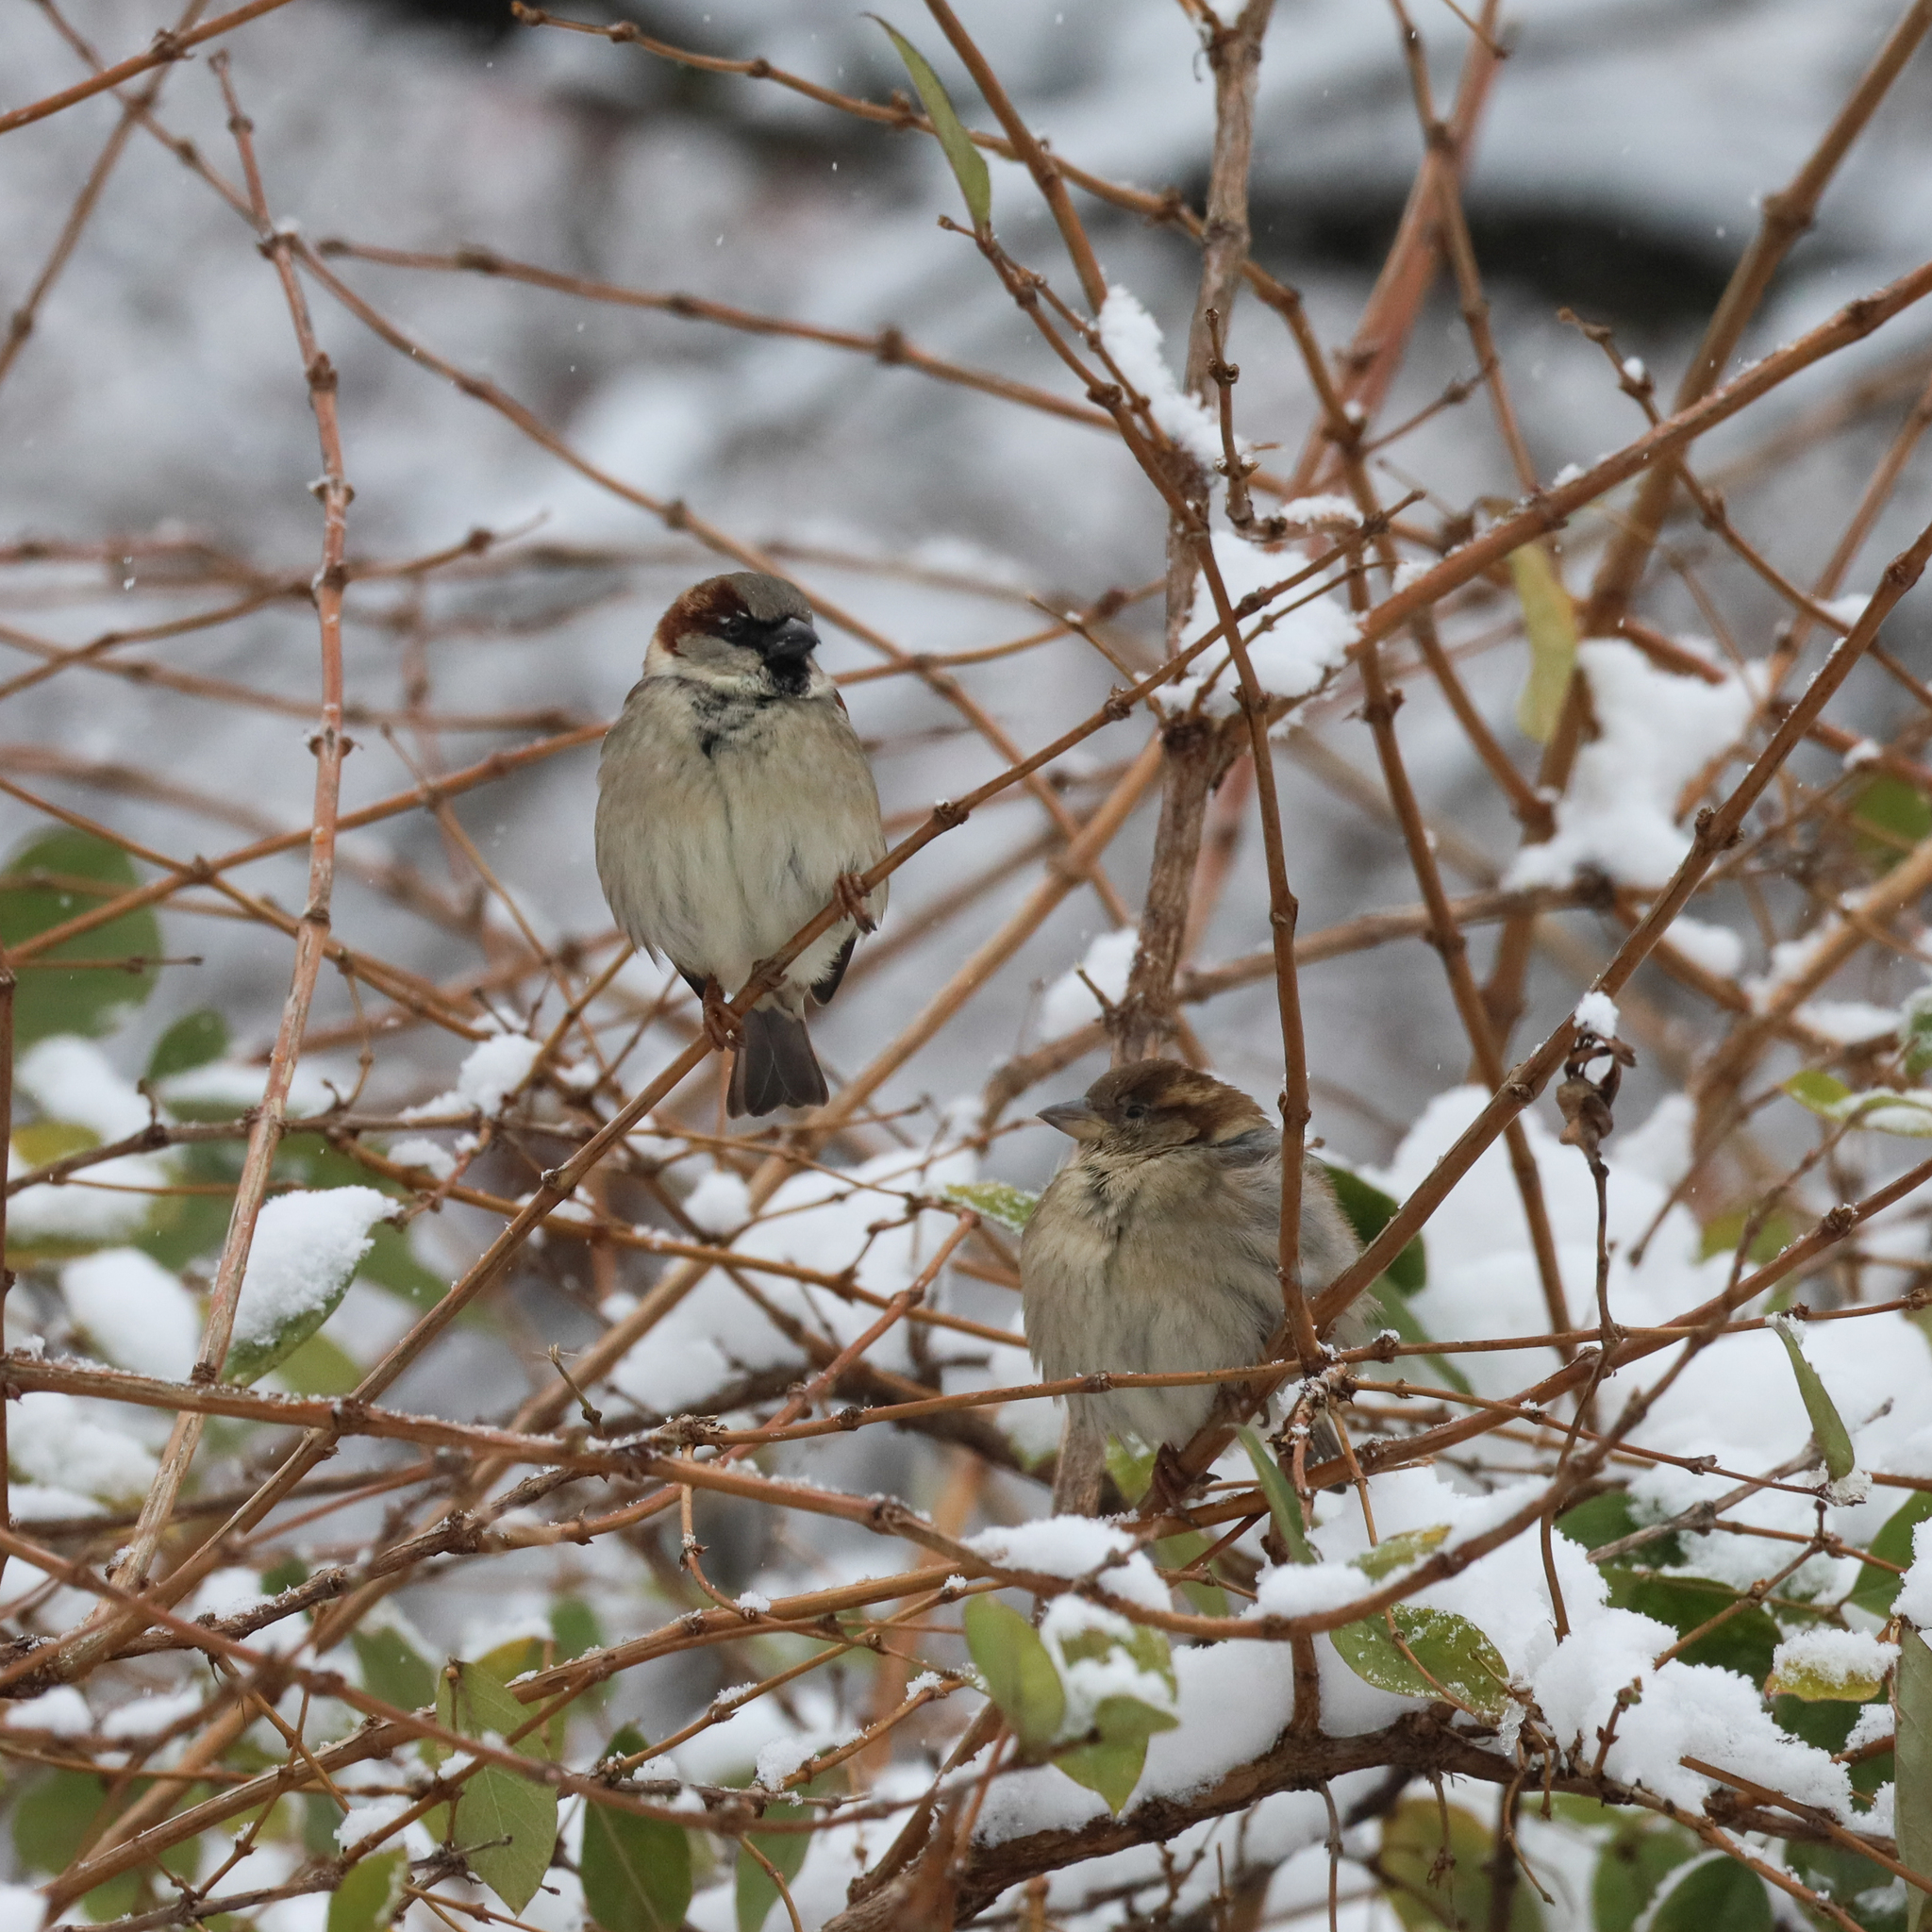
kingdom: Animalia
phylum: Chordata
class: Aves
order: Passeriformes
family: Passeridae
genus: Passer
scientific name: Passer domesticus
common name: House sparrow
